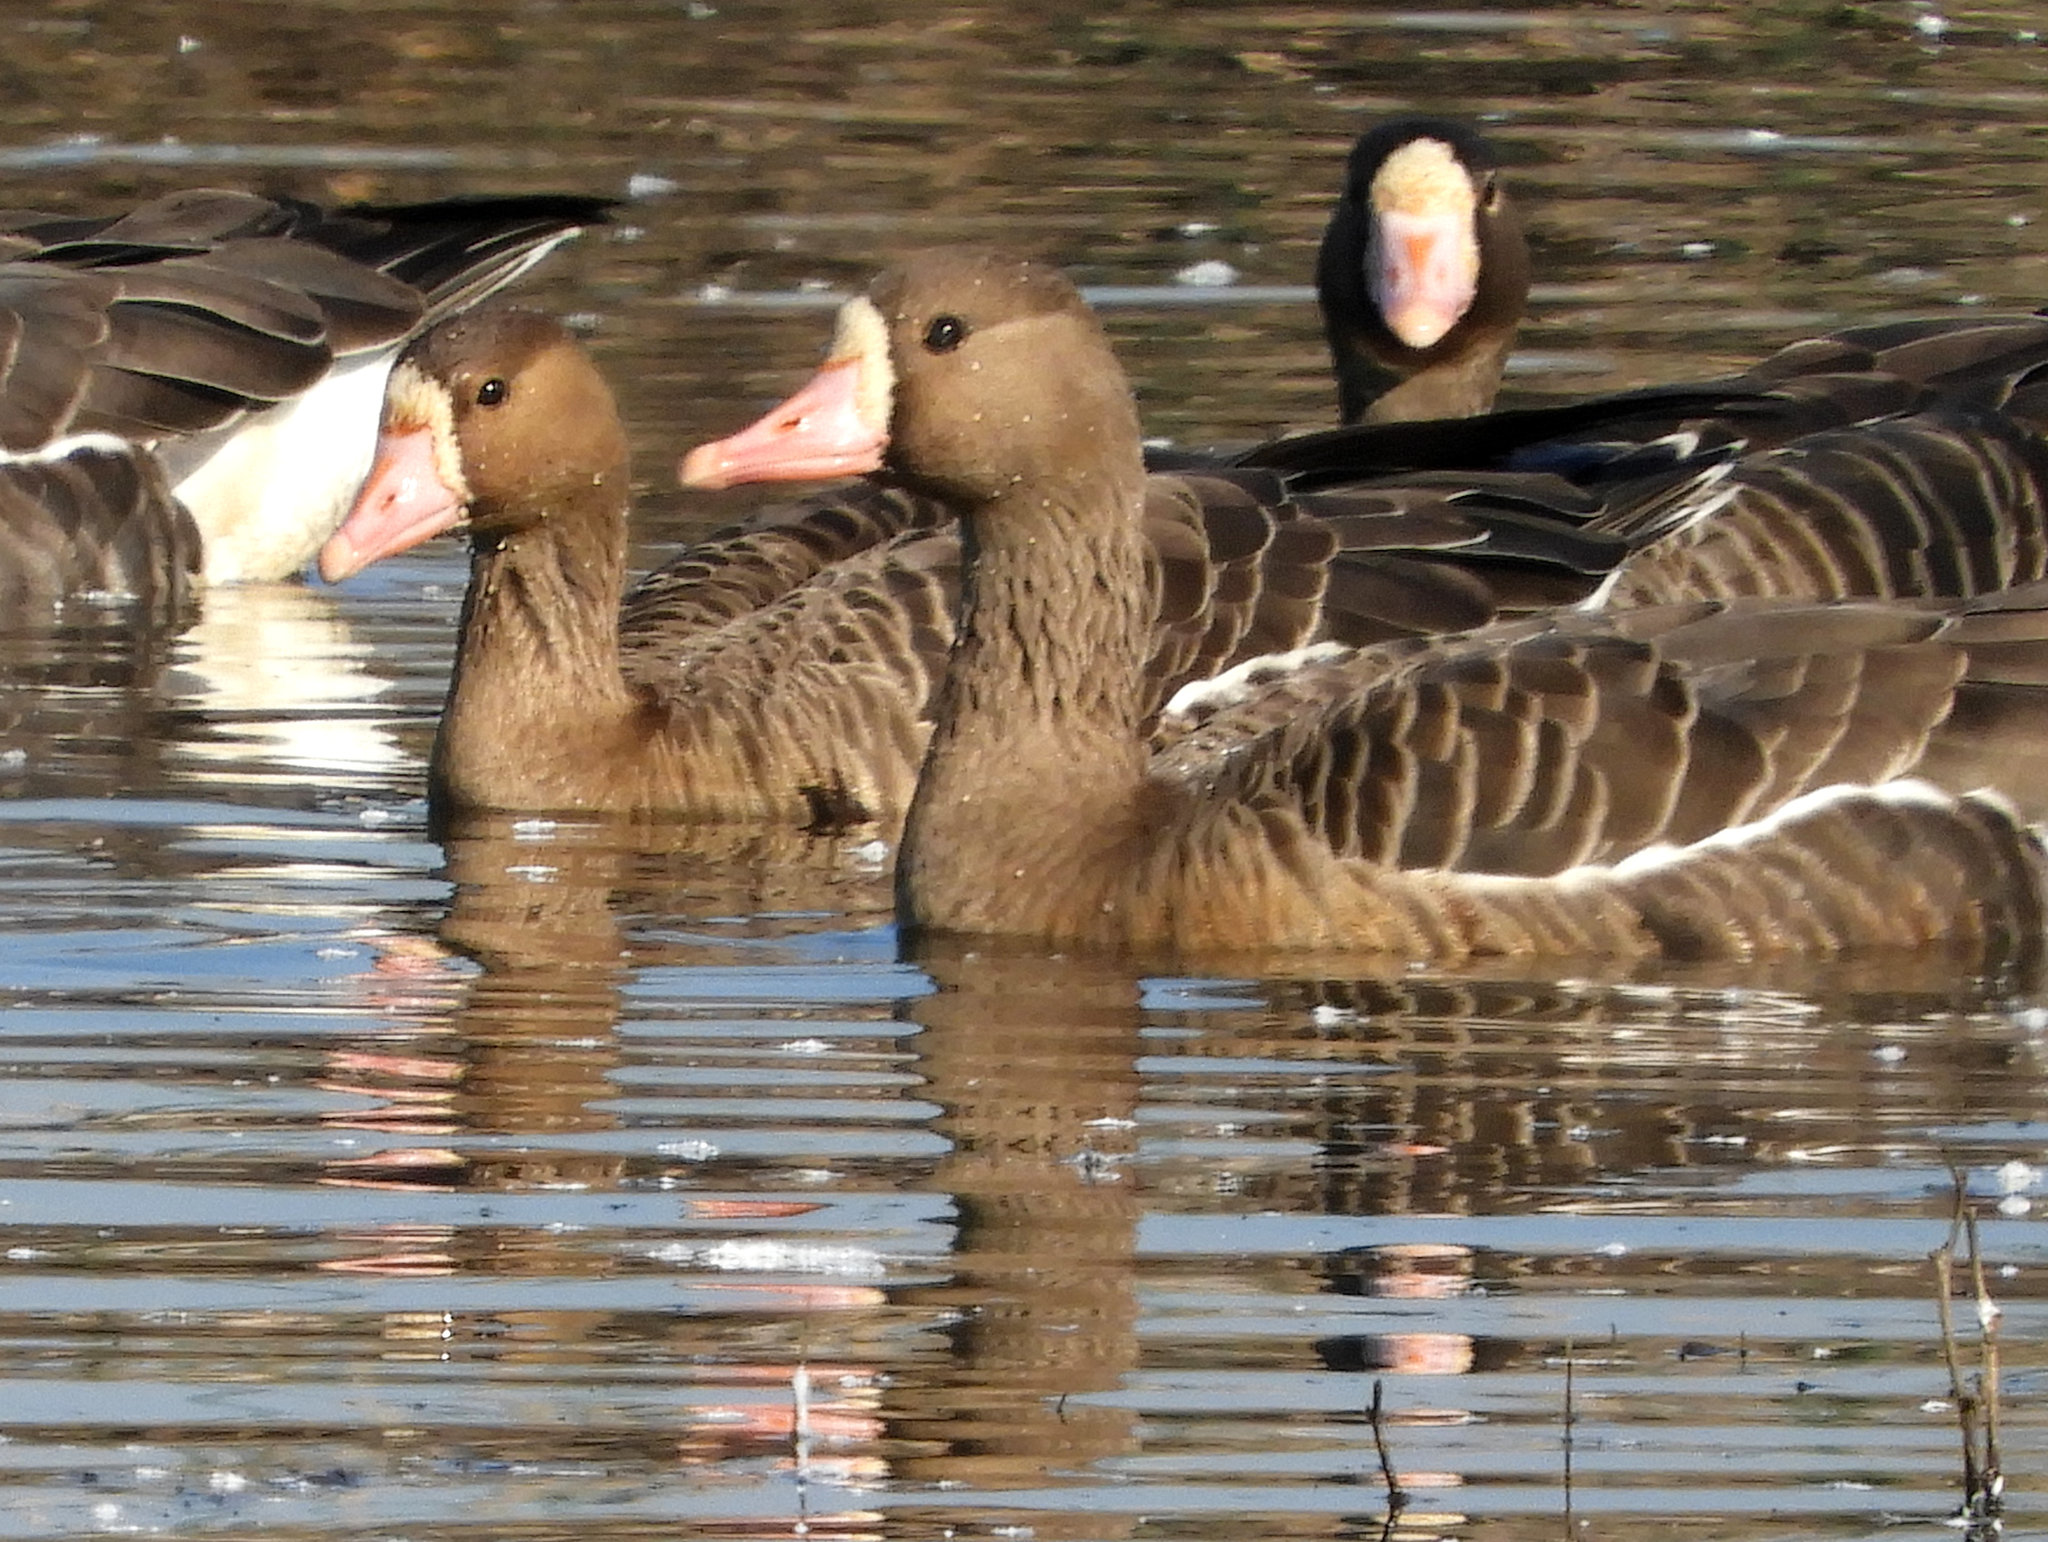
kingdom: Animalia
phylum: Chordata
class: Aves
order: Anseriformes
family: Anatidae
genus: Anser
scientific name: Anser albifrons
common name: Greater white-fronted goose
